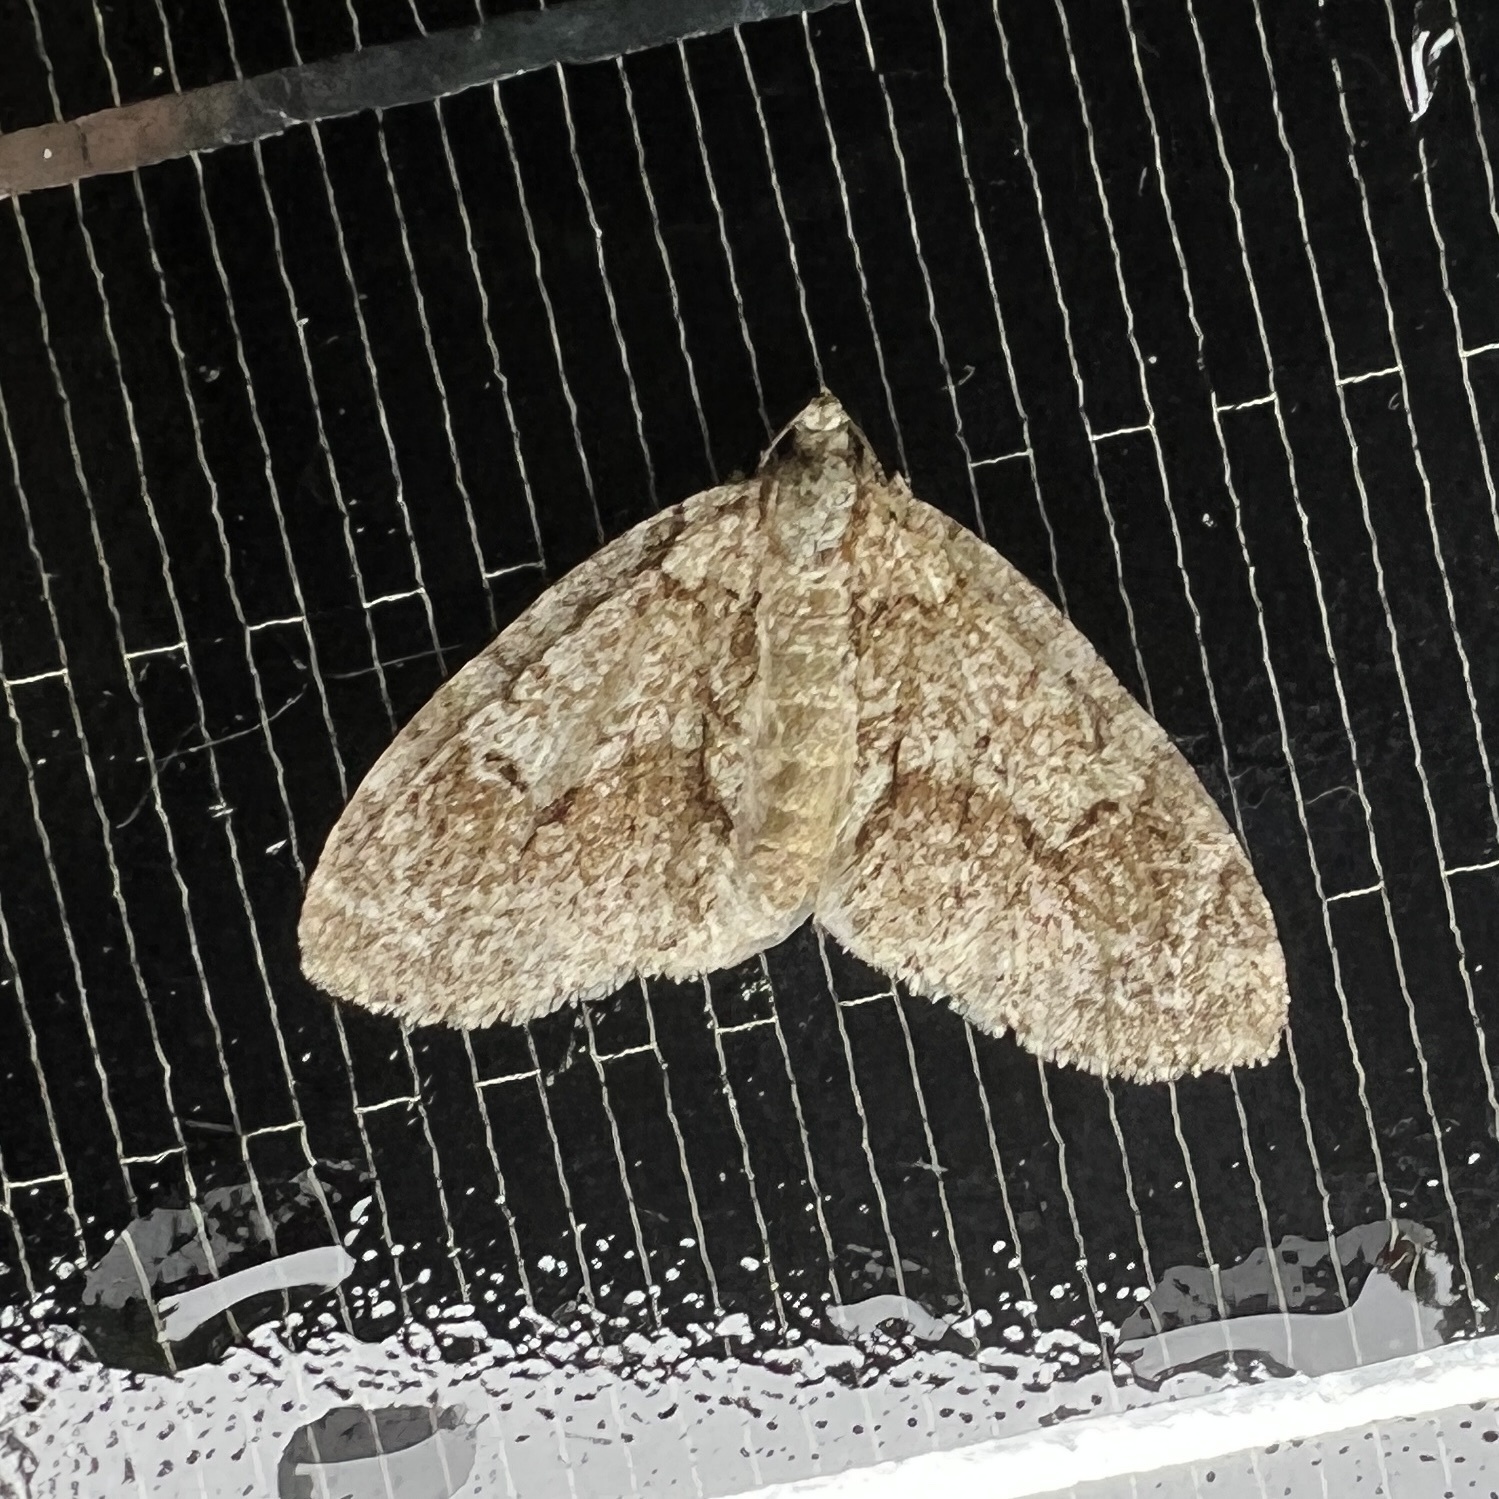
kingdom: Animalia
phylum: Arthropoda
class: Insecta
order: Lepidoptera
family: Geometridae
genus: Cladara
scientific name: Cladara limitaria
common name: Mottled gray carpet
